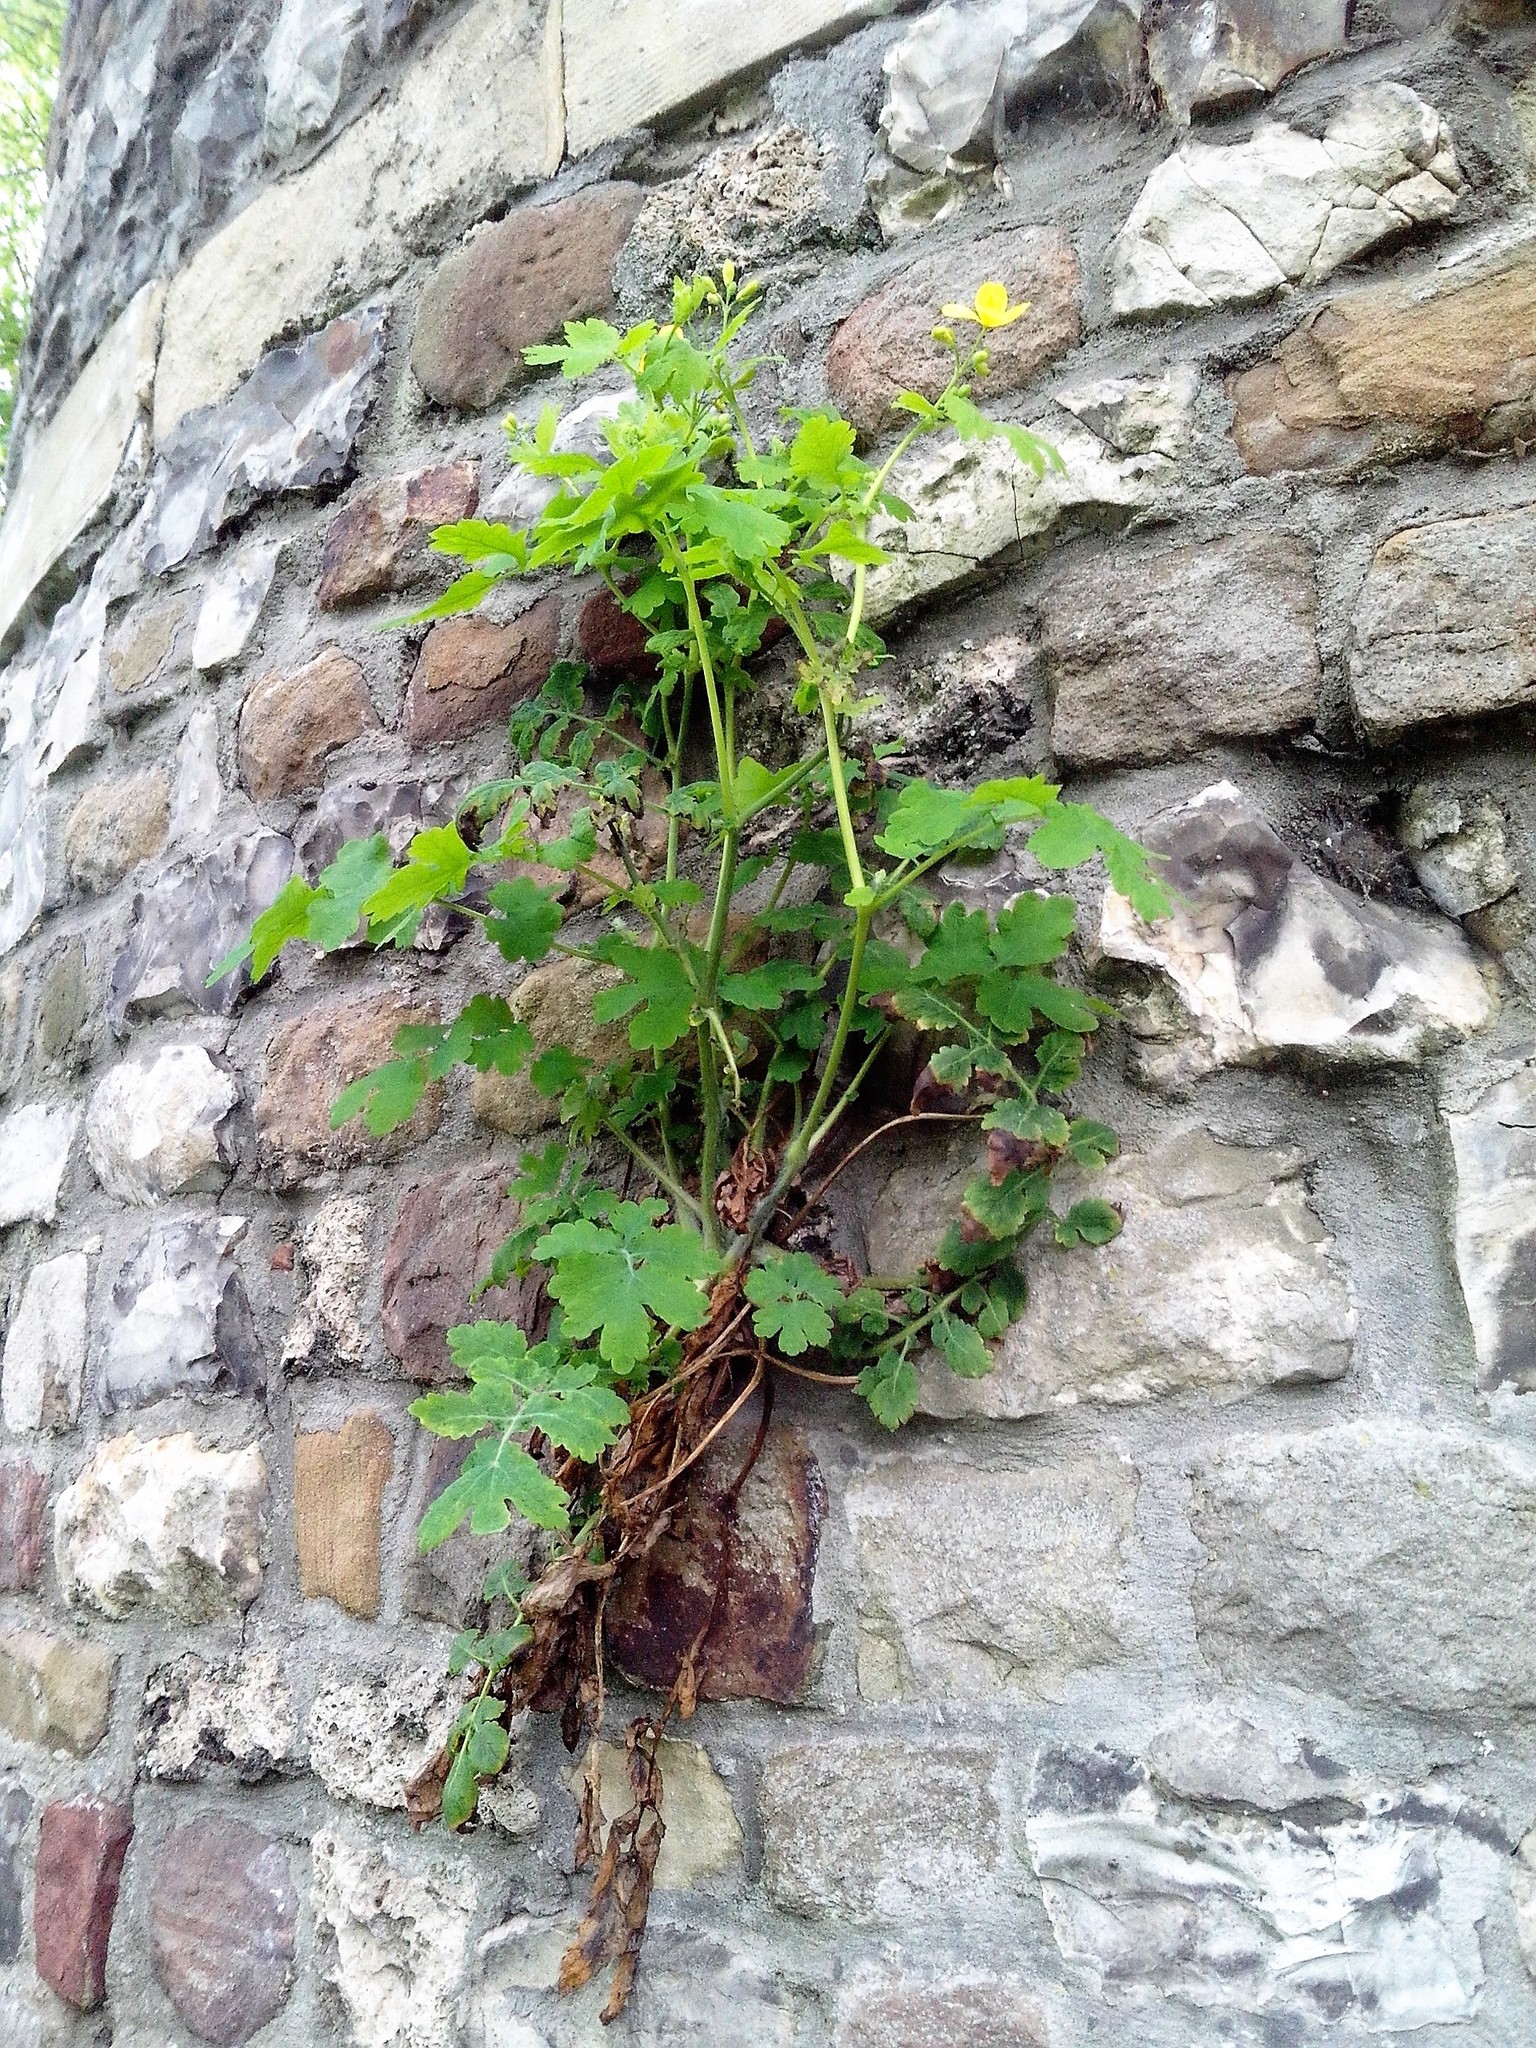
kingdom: Plantae
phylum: Tracheophyta
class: Magnoliopsida
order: Ranunculales
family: Papaveraceae
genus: Chelidonium
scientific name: Chelidonium majus
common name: Greater celandine
